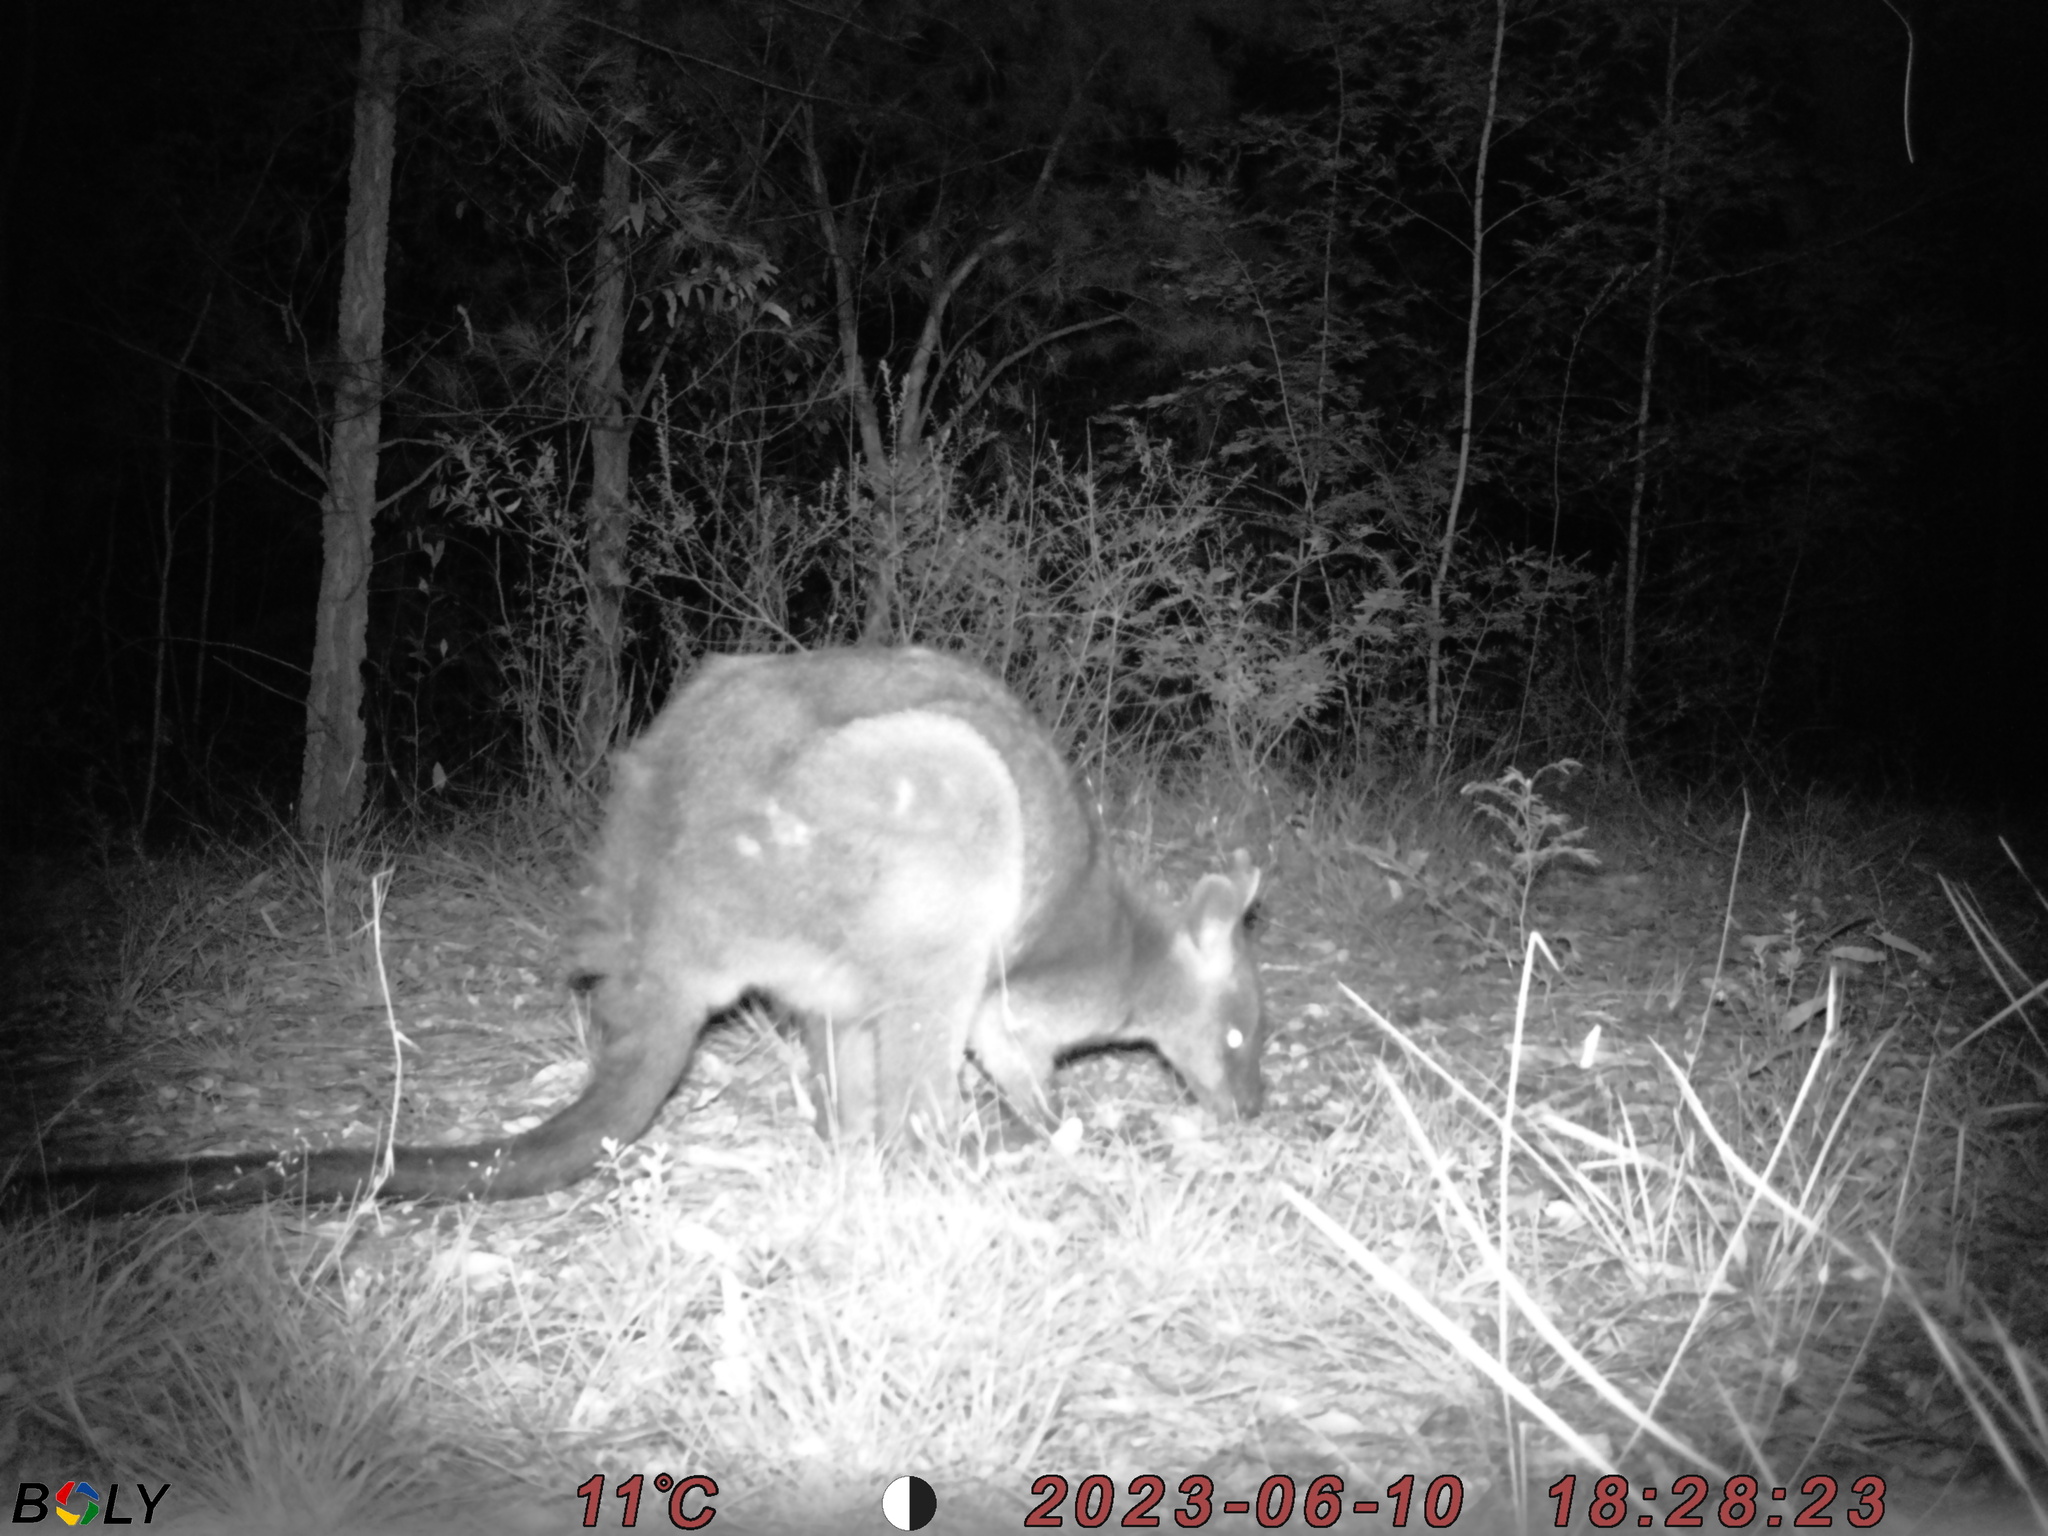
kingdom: Animalia
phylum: Chordata
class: Mammalia
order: Diprotodontia
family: Macropodidae
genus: Wallabia
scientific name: Wallabia bicolor
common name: Swamp wallaby
